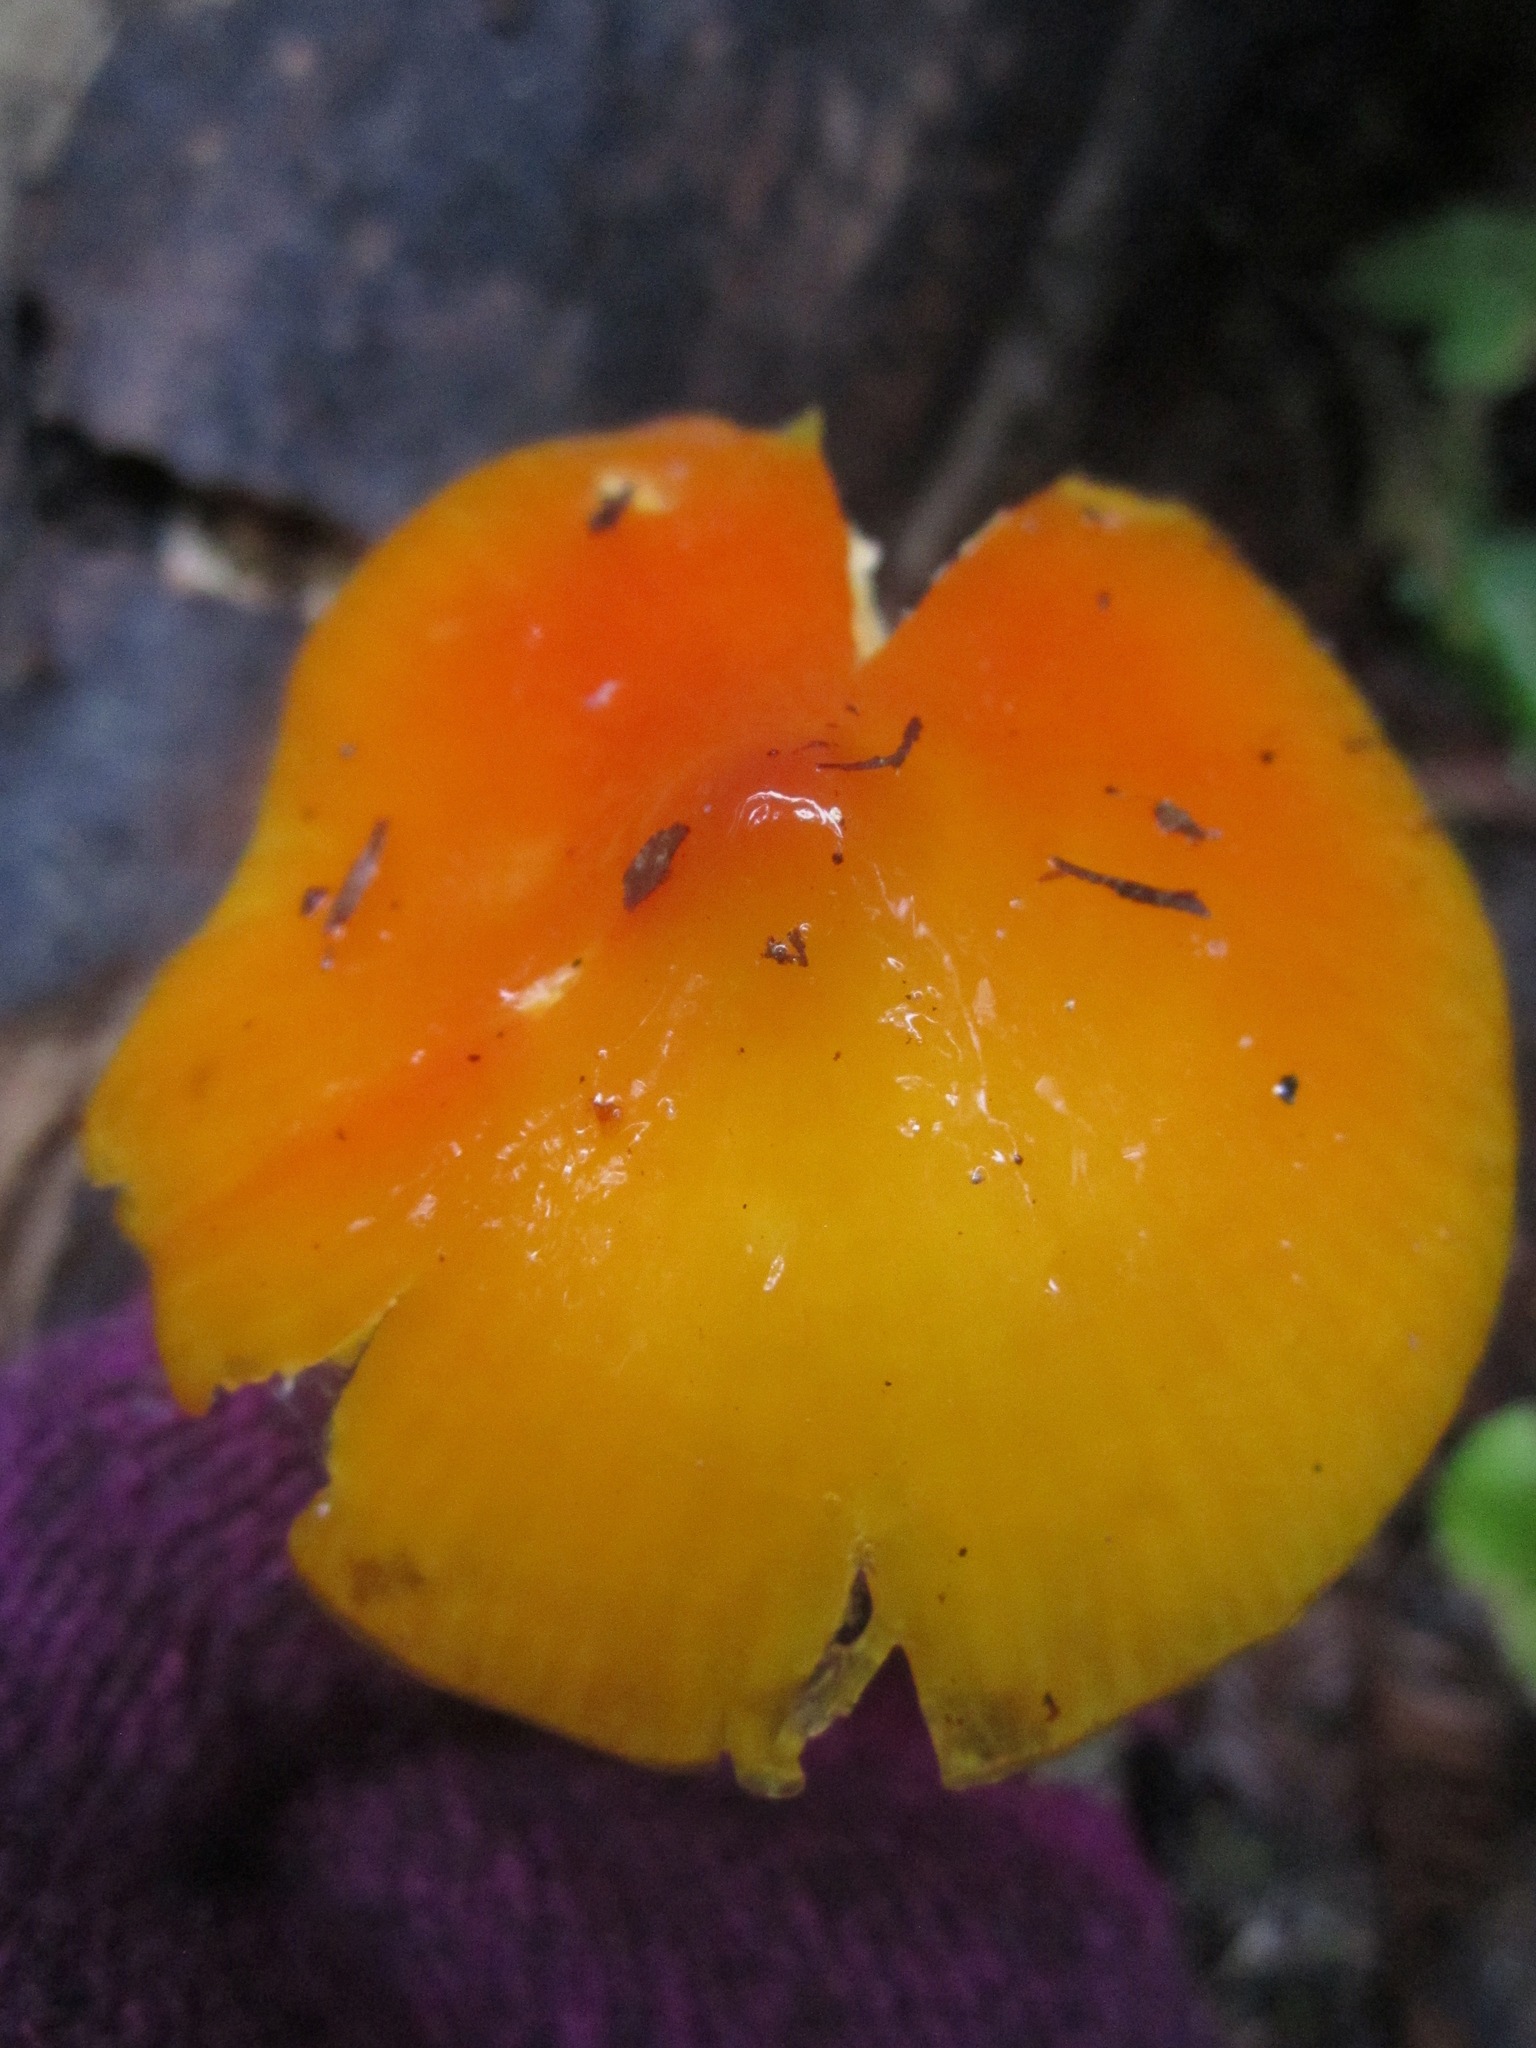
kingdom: Fungi
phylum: Basidiomycota
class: Agaricomycetes
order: Agaricales
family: Hygrophoraceae
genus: Hygrocybe
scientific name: Hygrocybe acutoconica
